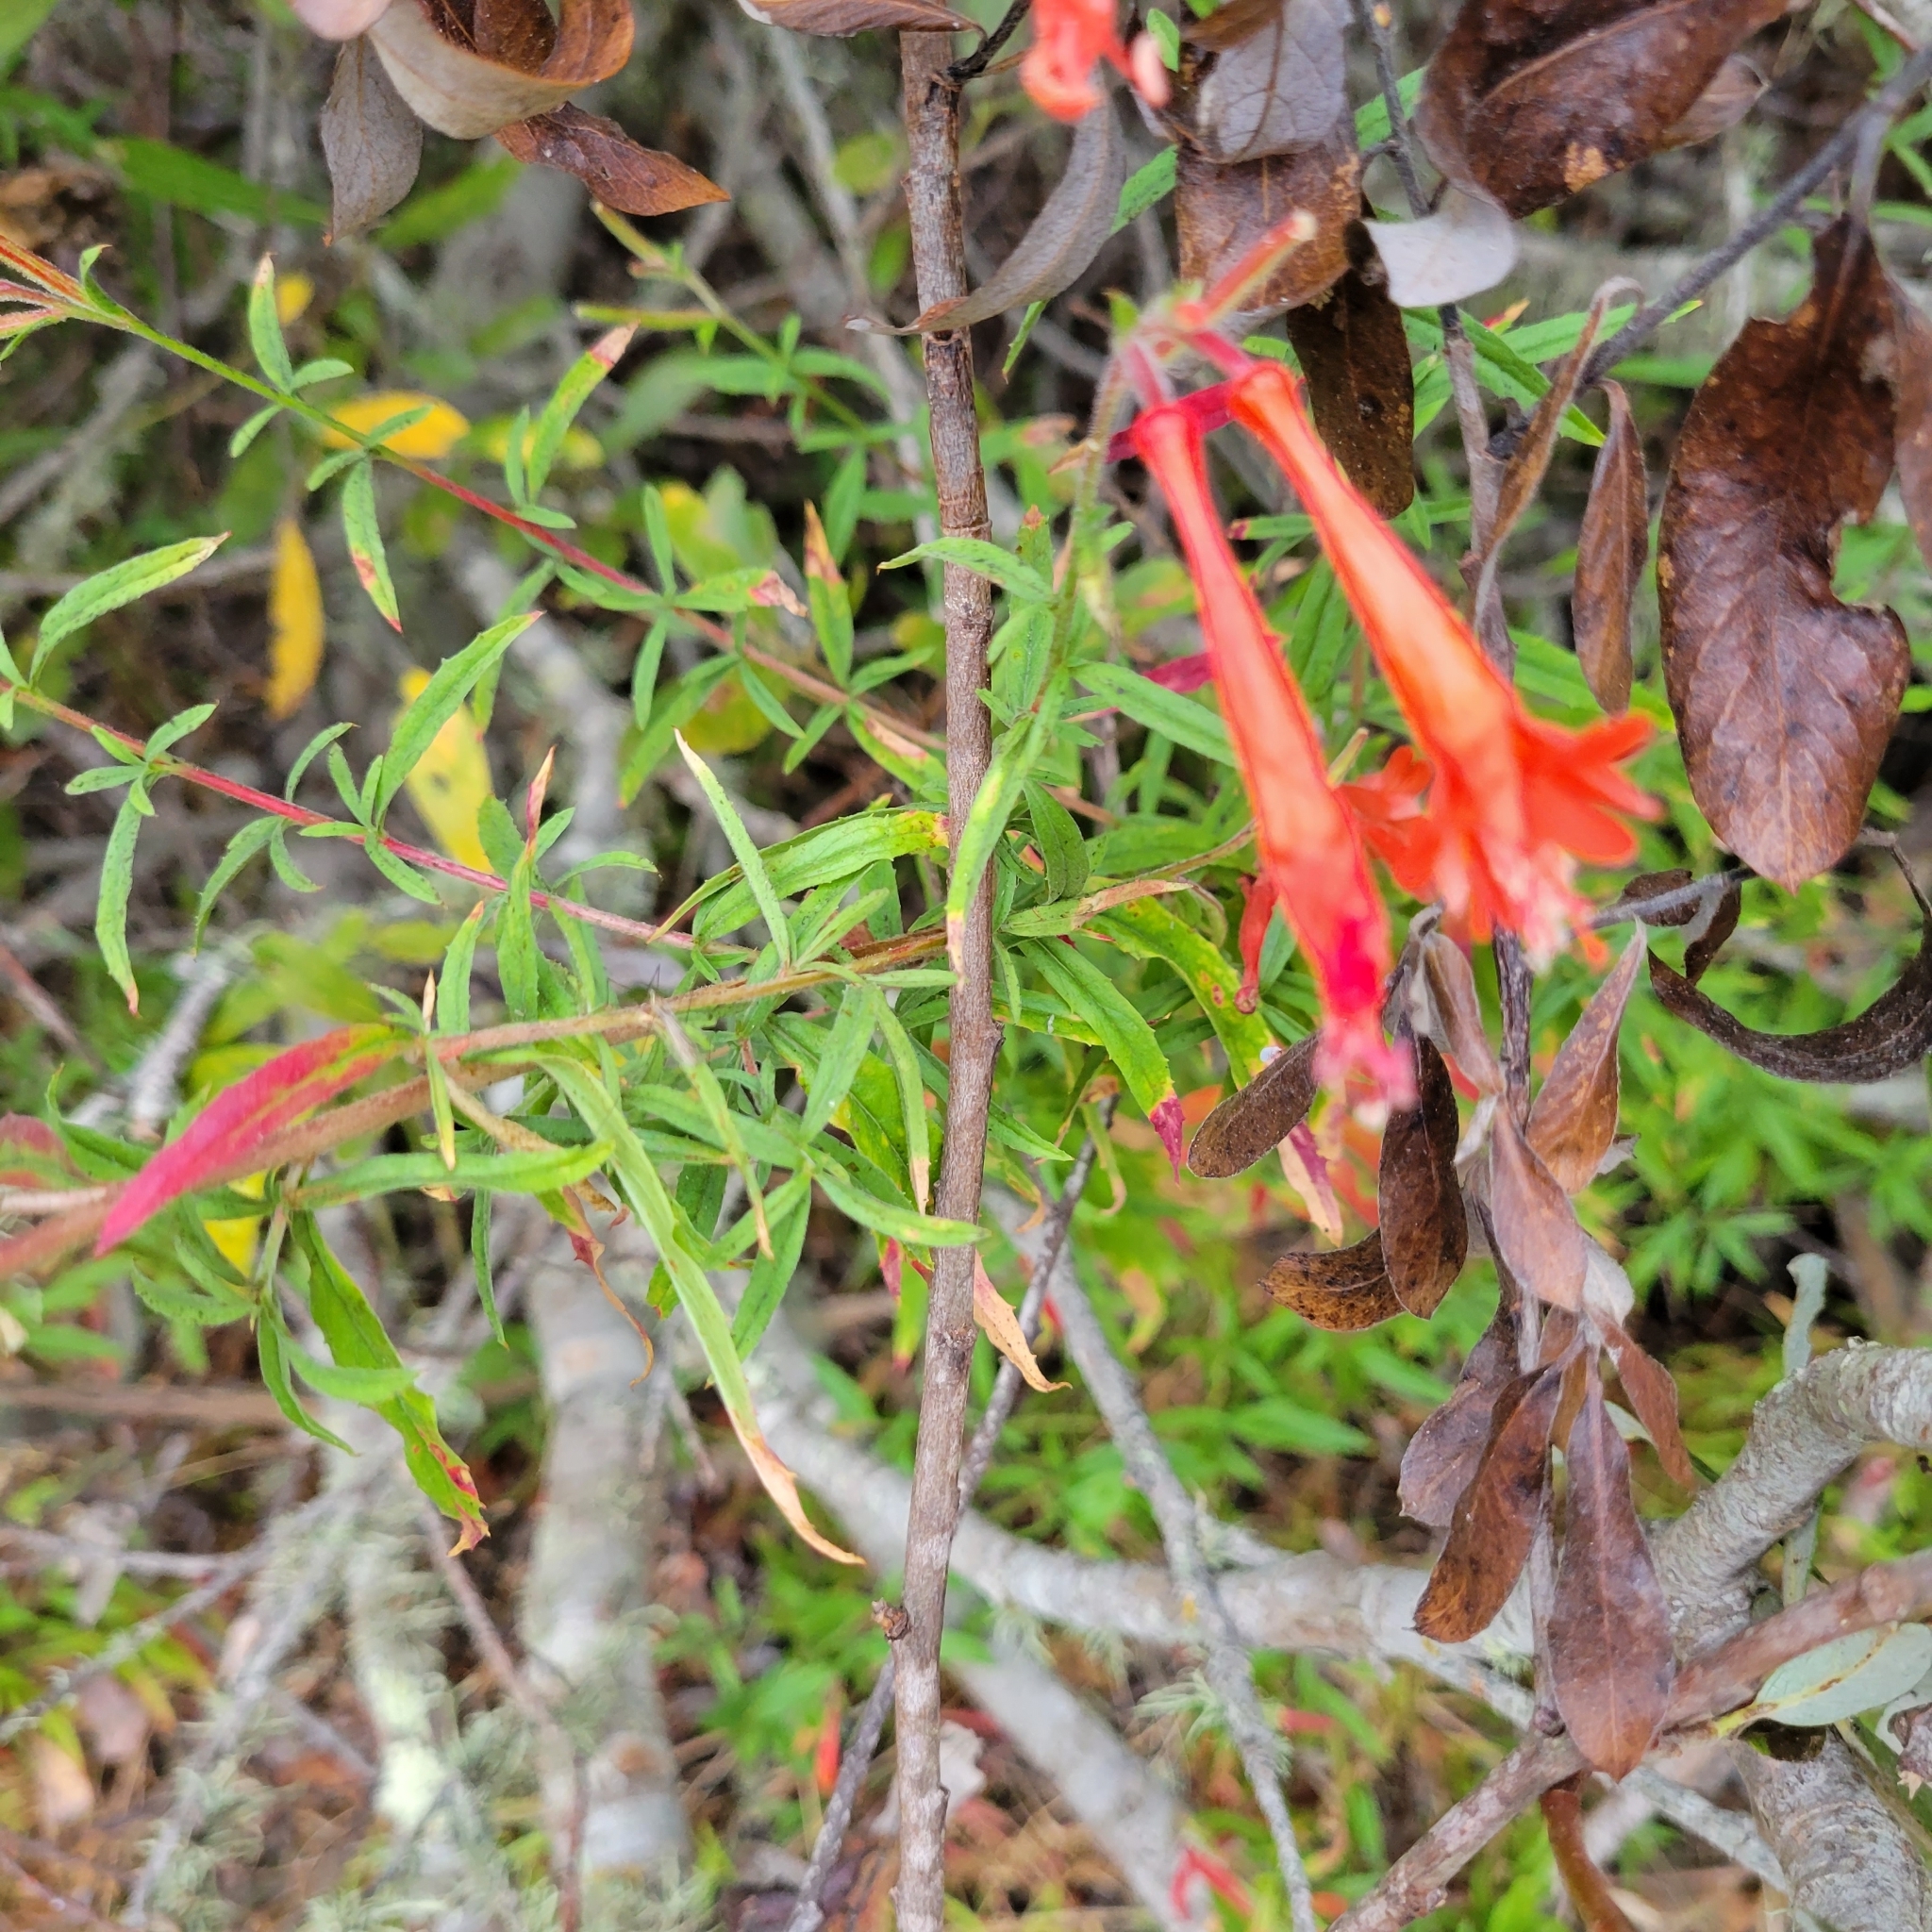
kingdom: Plantae
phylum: Tracheophyta
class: Magnoliopsida
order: Myrtales
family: Onagraceae
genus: Epilobium
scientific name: Epilobium canum
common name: California-fuchsia
